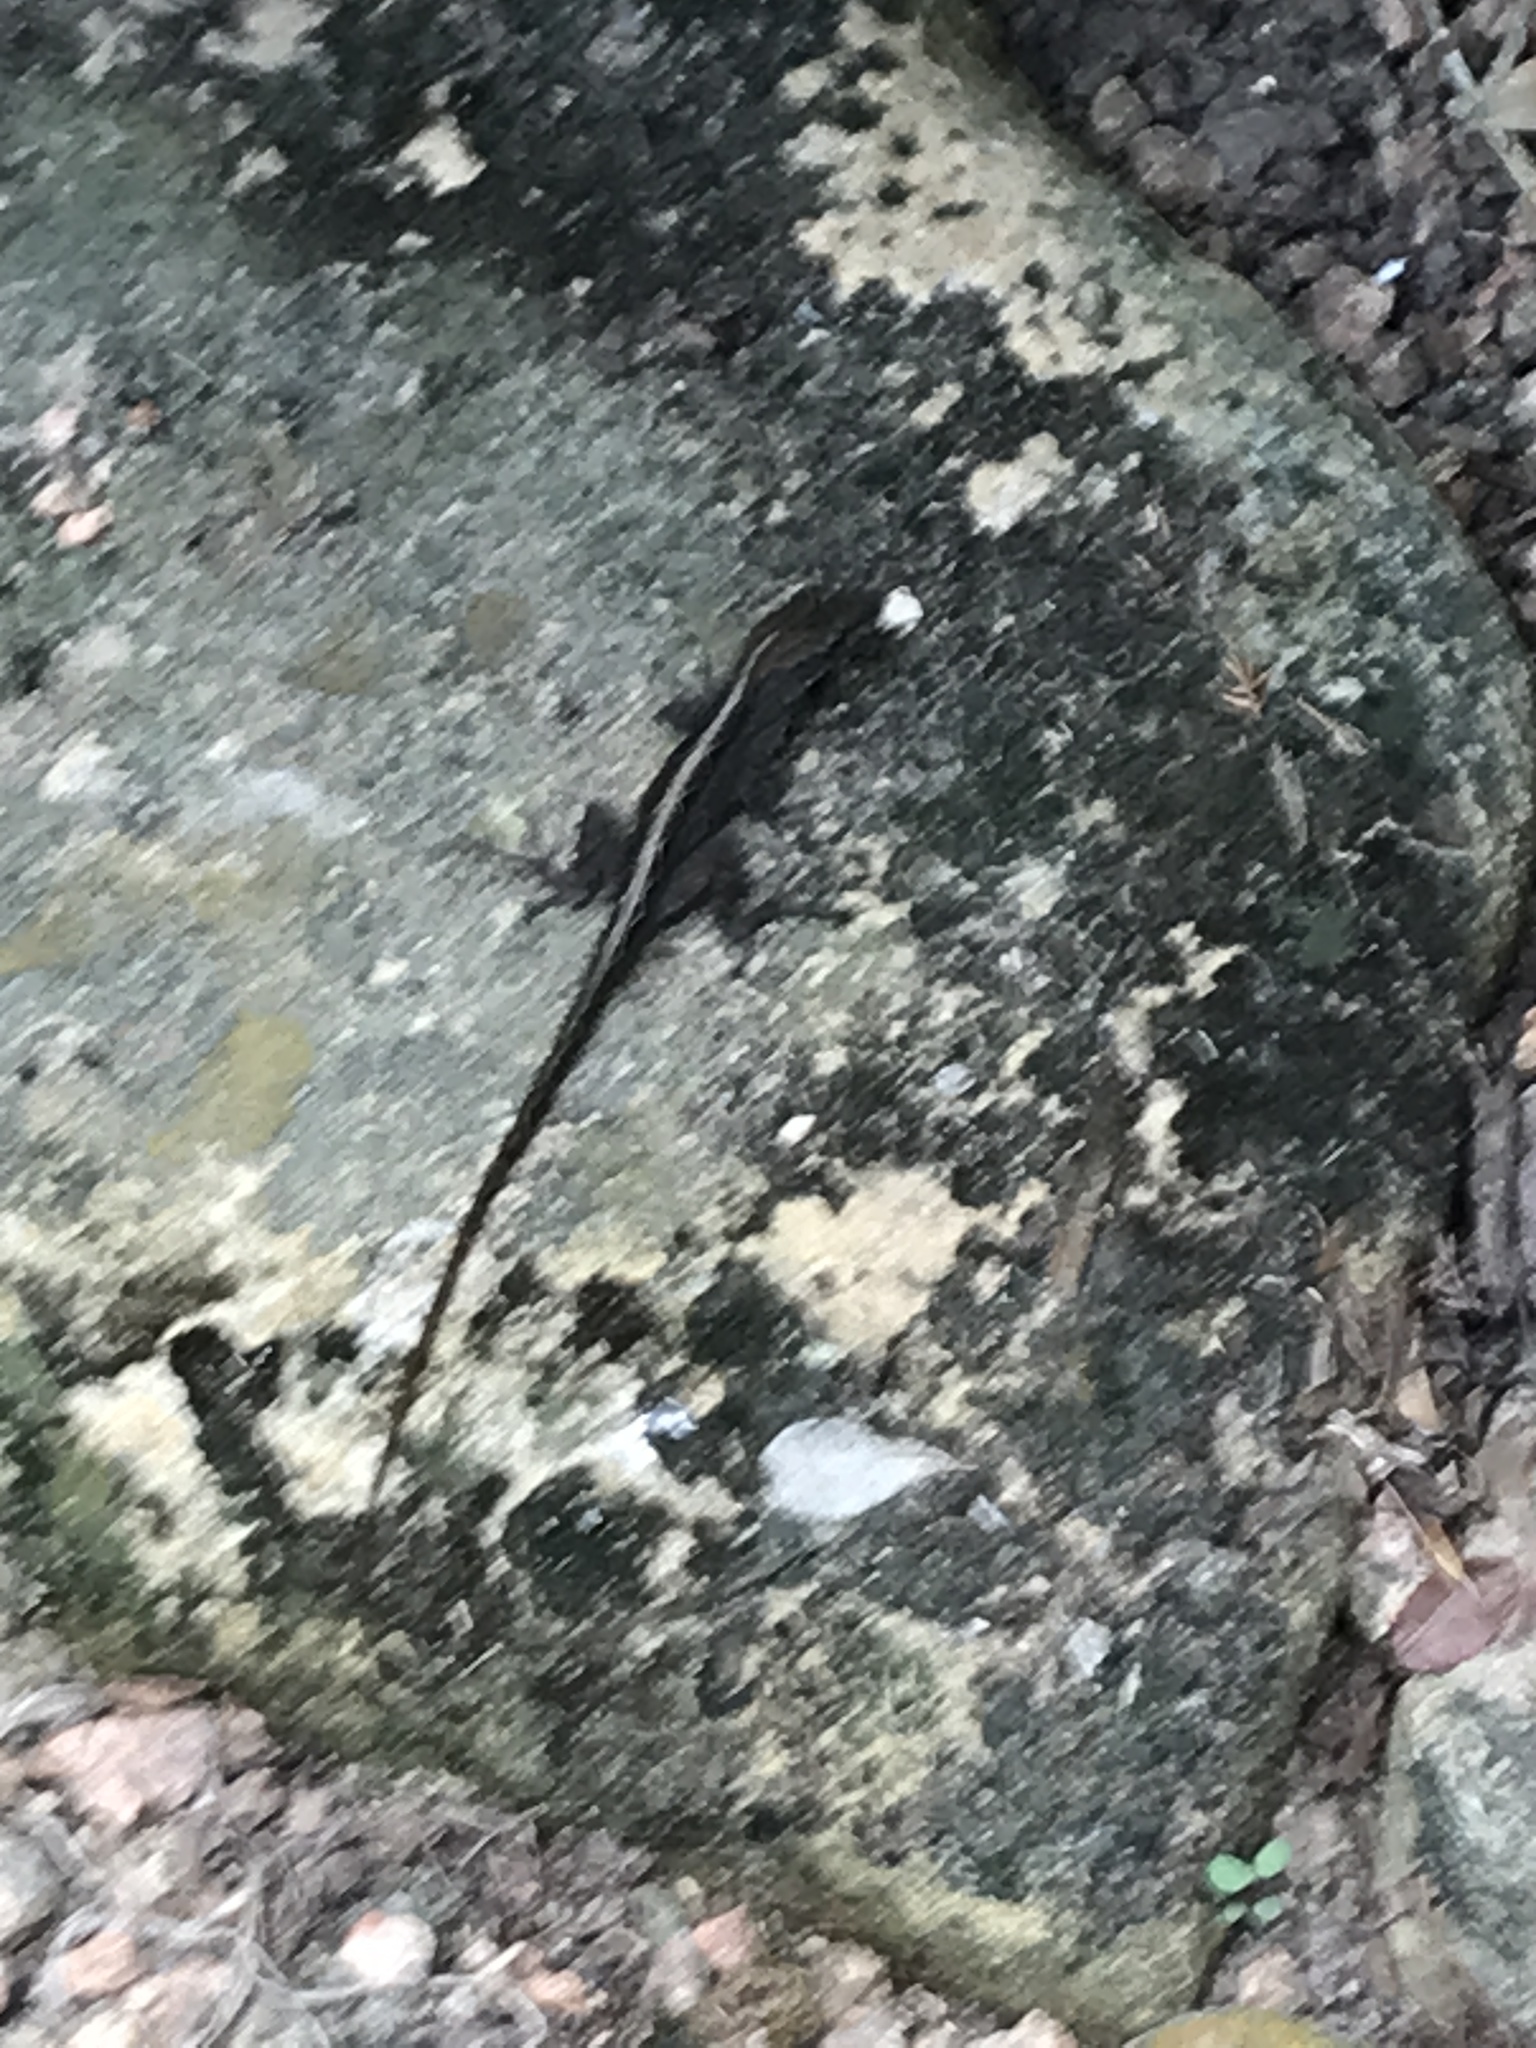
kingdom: Animalia
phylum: Chordata
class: Squamata
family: Dactyloidae
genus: Anolis
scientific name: Anolis sagrei
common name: Brown anole
